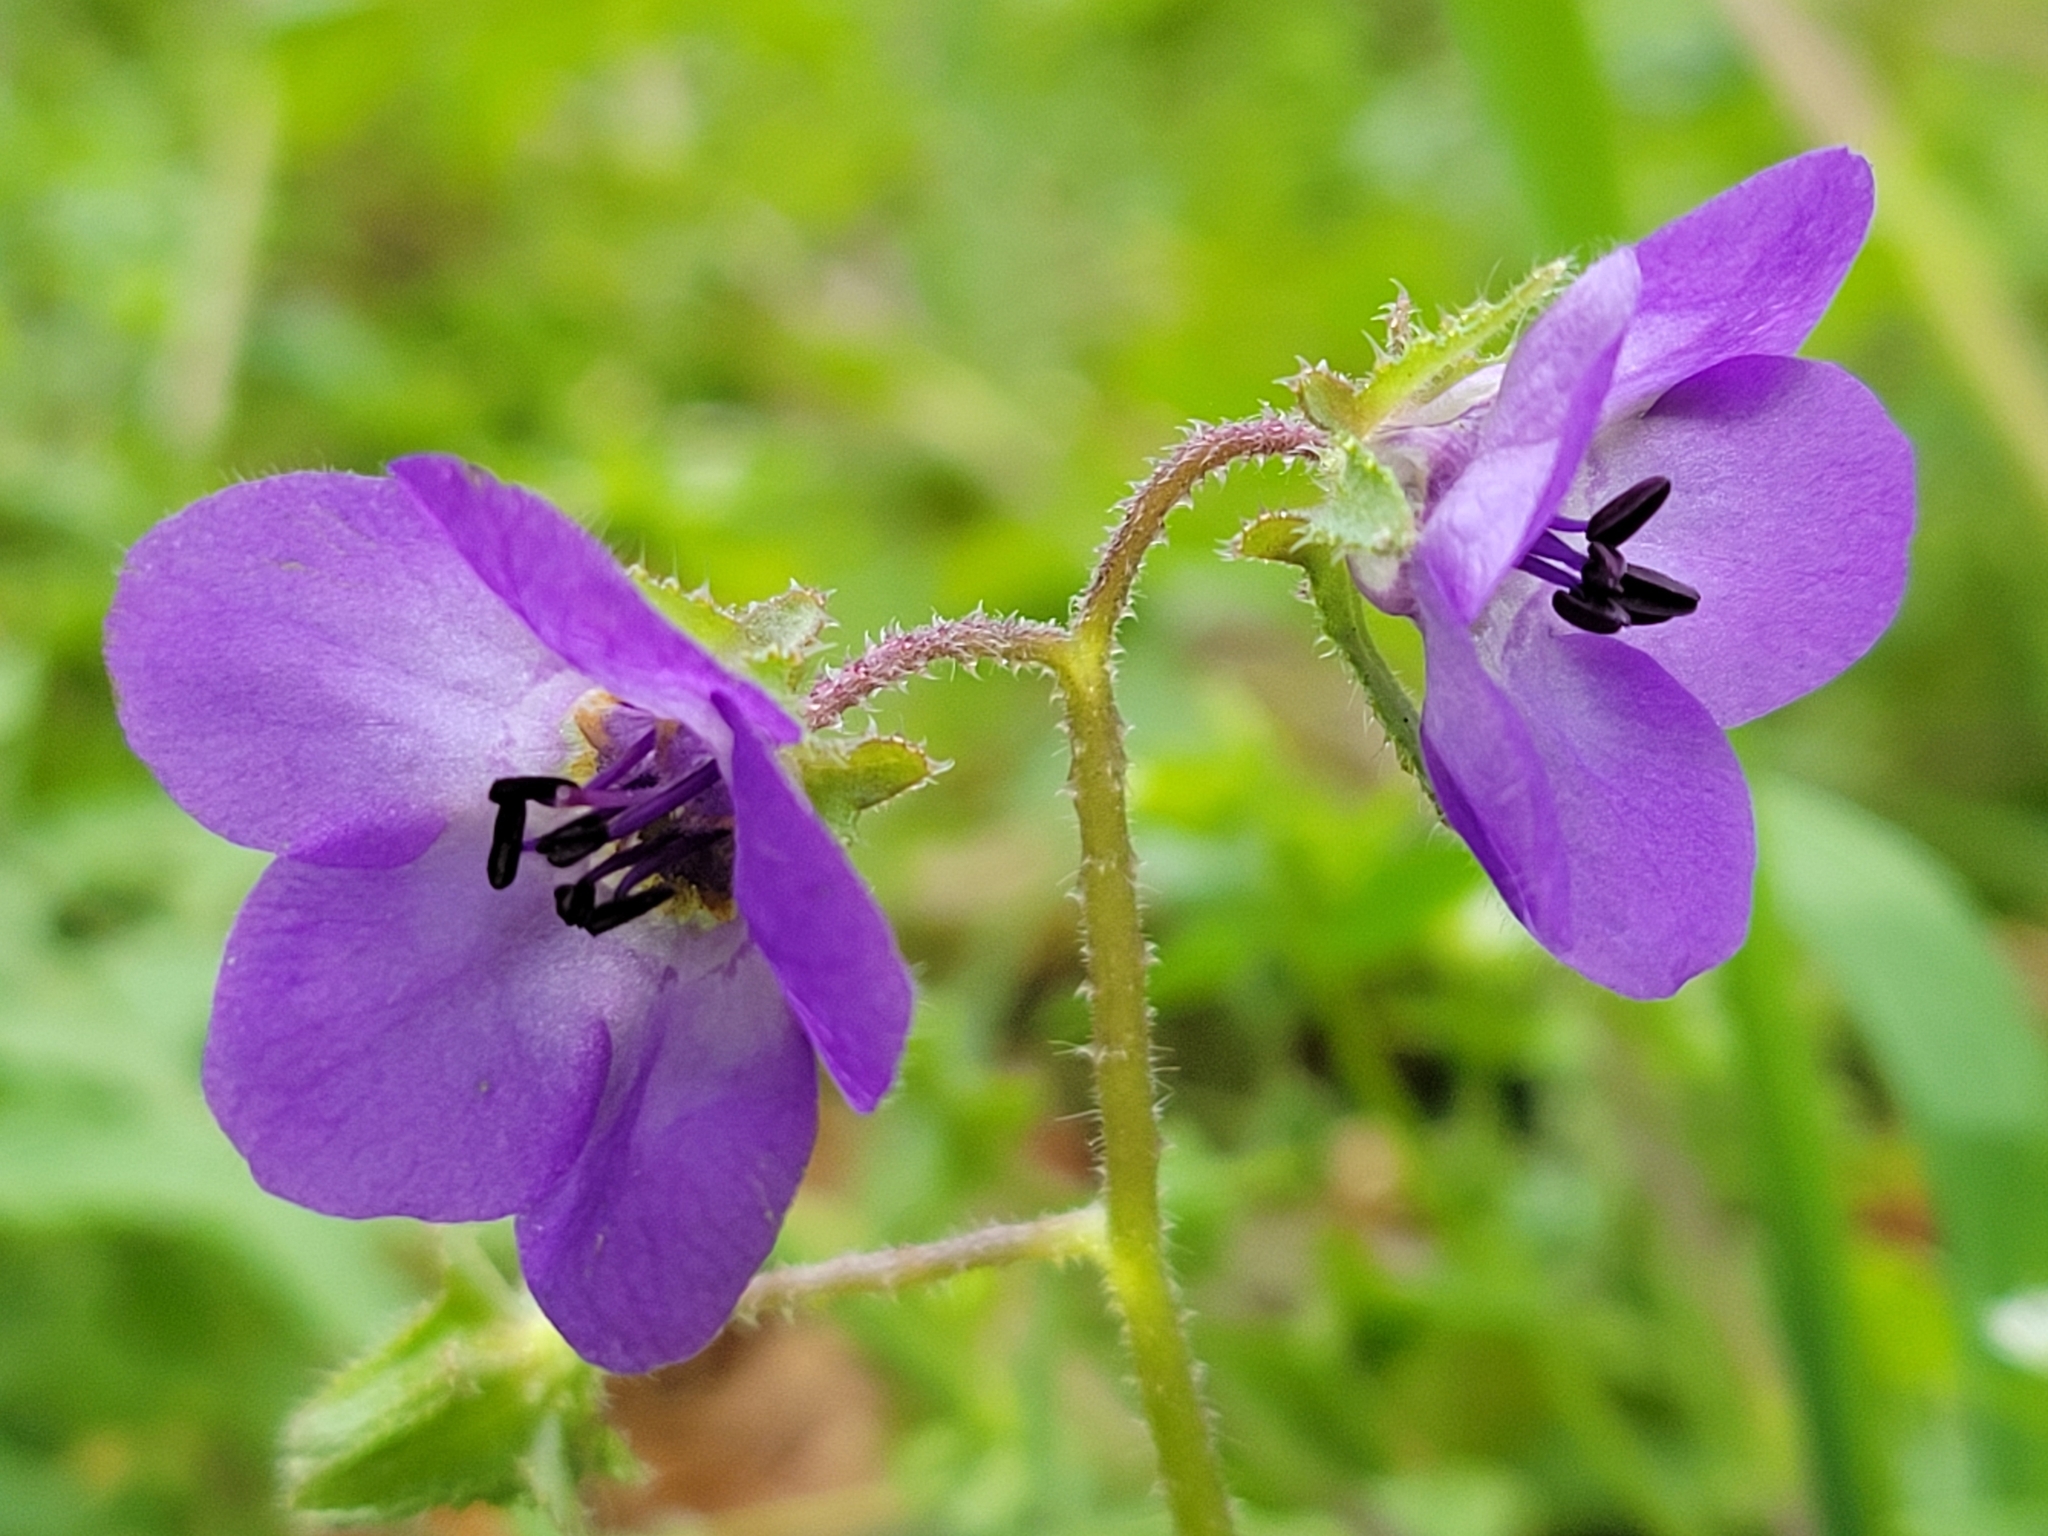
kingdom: Plantae
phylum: Tracheophyta
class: Magnoliopsida
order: Boraginales
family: Hydrophyllaceae
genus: Pholistoma
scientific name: Pholistoma auritum
